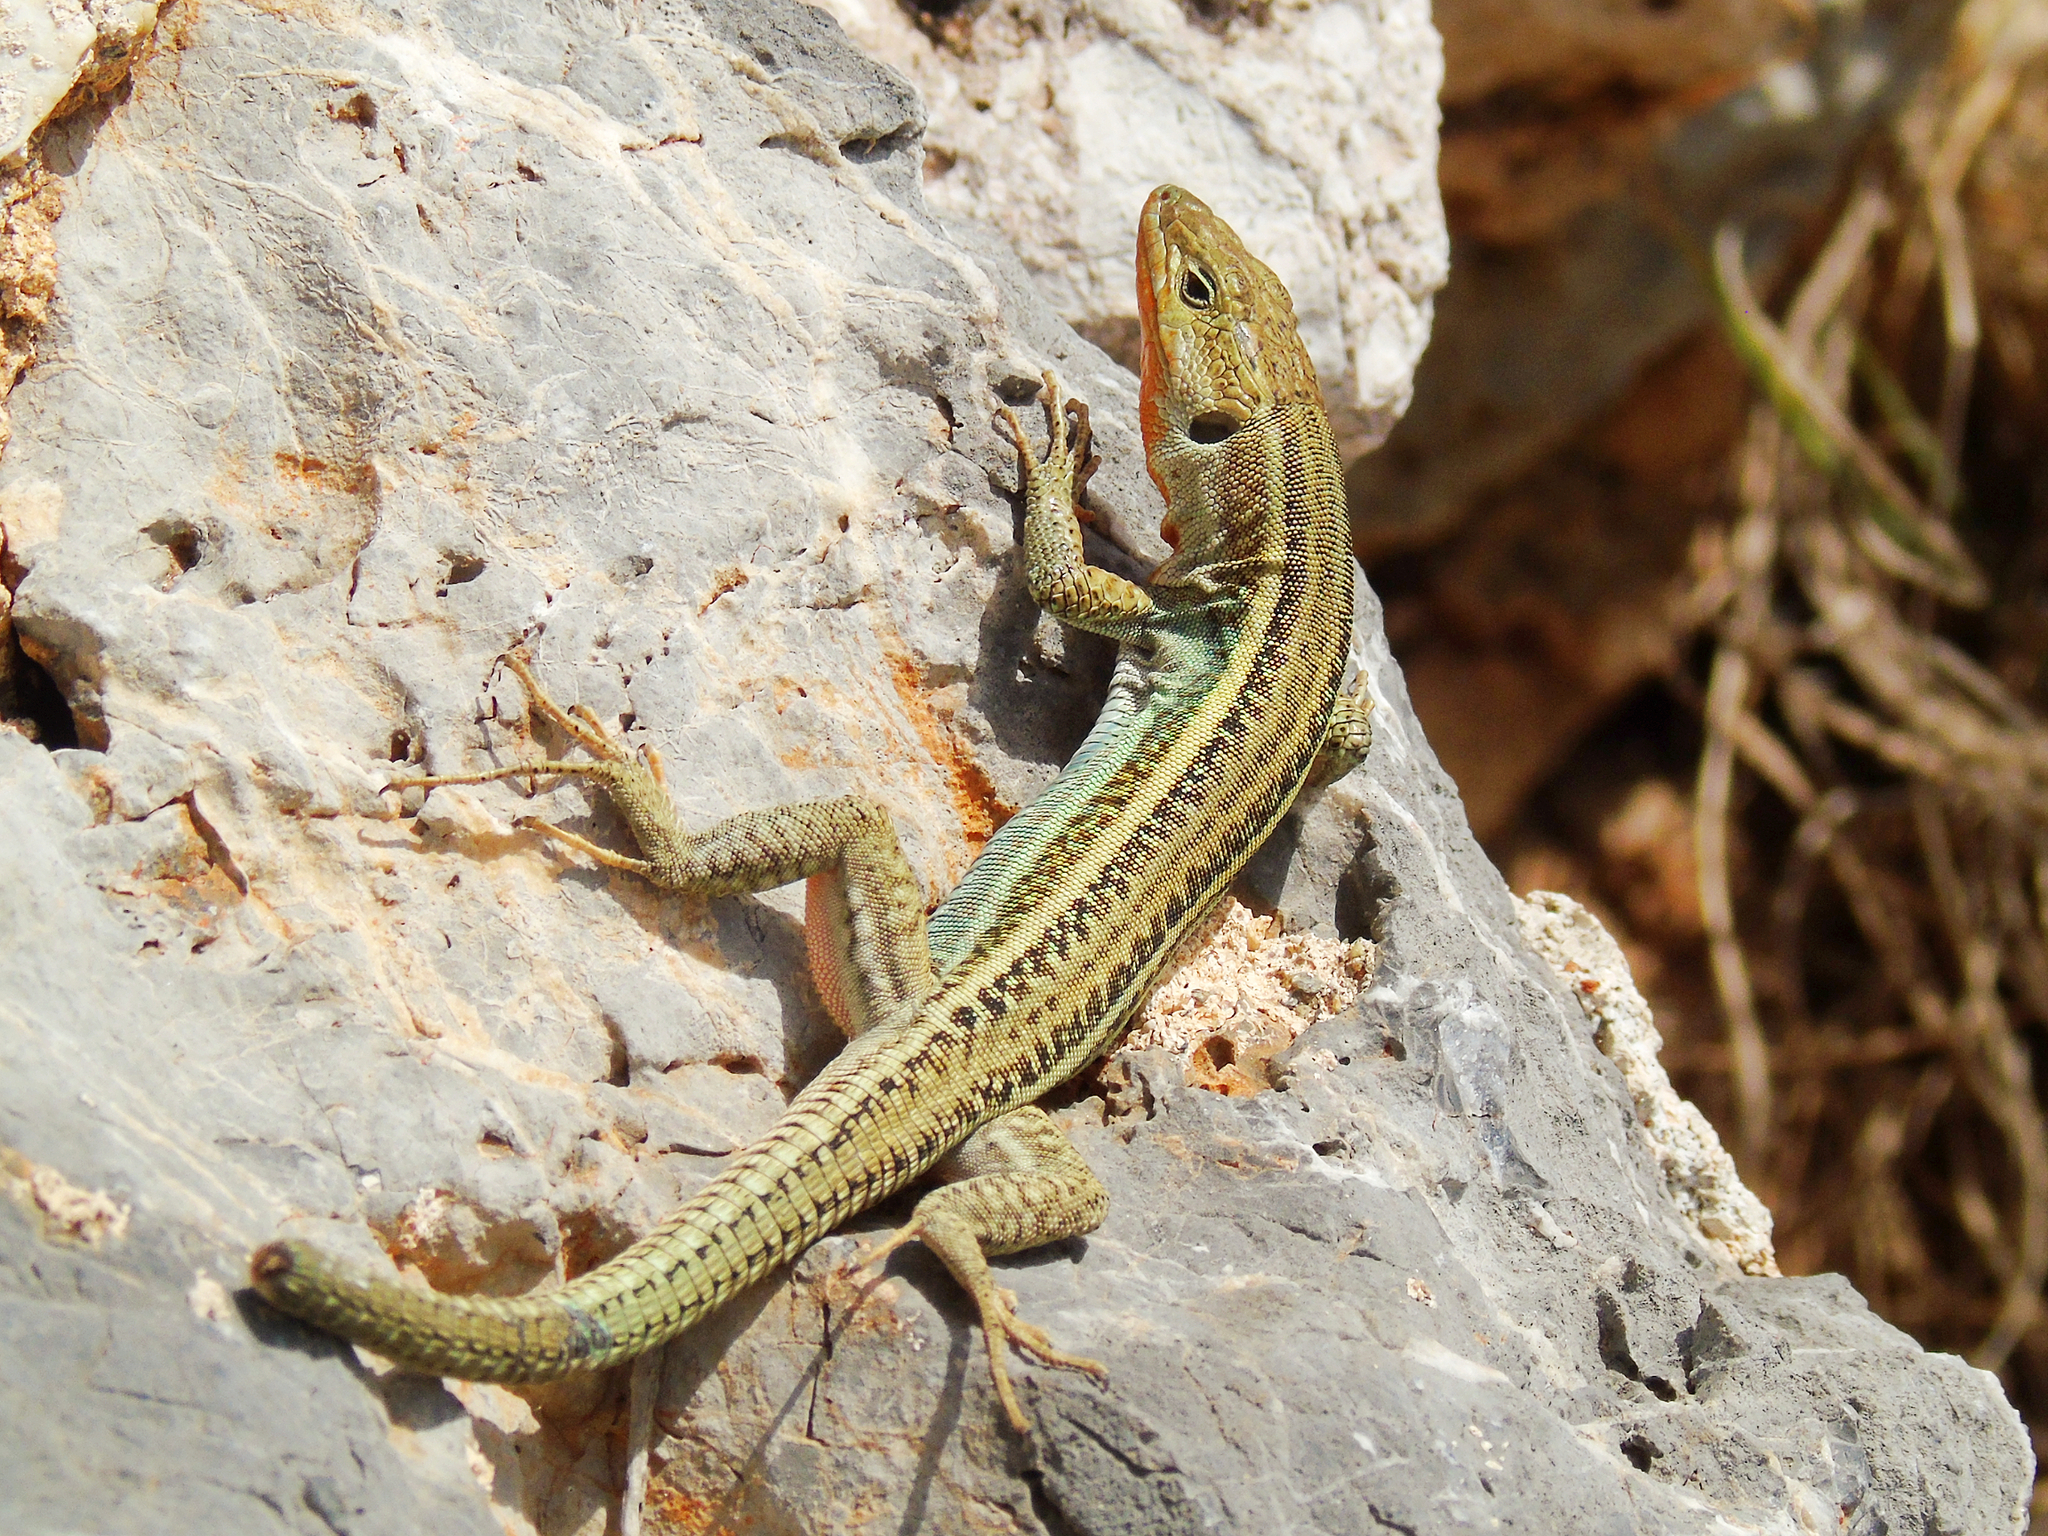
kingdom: Animalia
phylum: Chordata
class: Squamata
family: Lacertidae
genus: Podarcis
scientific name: Podarcis peloponnesiacus
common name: Peloponnese wall lizard
